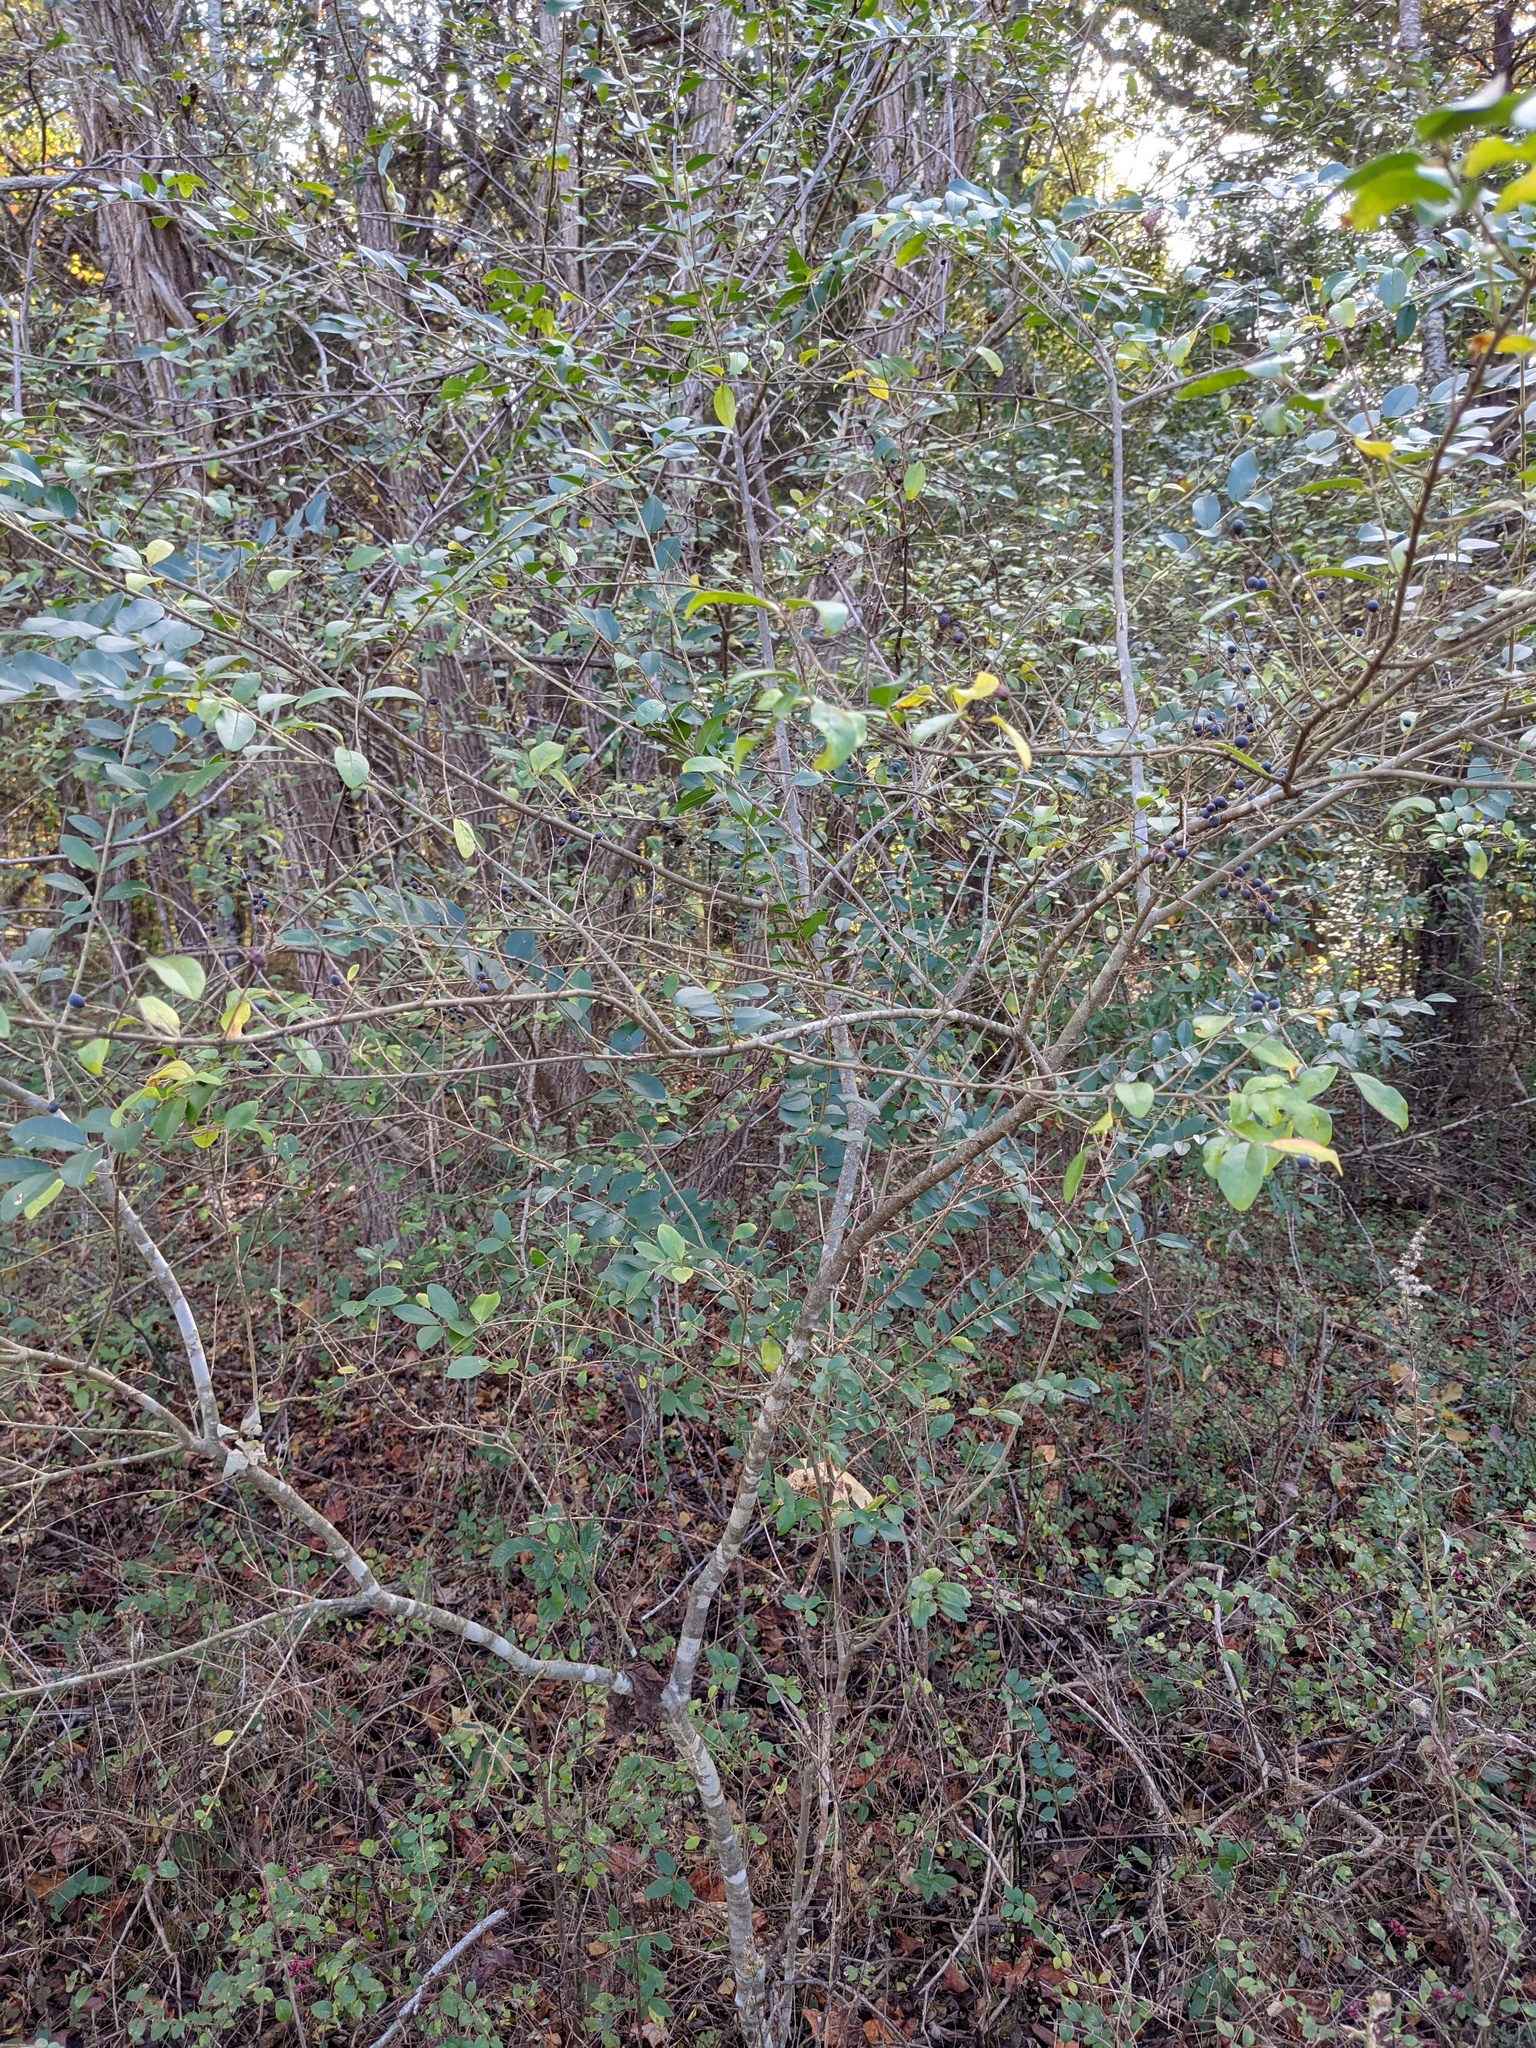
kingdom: Plantae
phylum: Tracheophyta
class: Magnoliopsida
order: Lamiales
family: Oleaceae
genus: Ligustrum
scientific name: Ligustrum sinense
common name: Chinese privet
